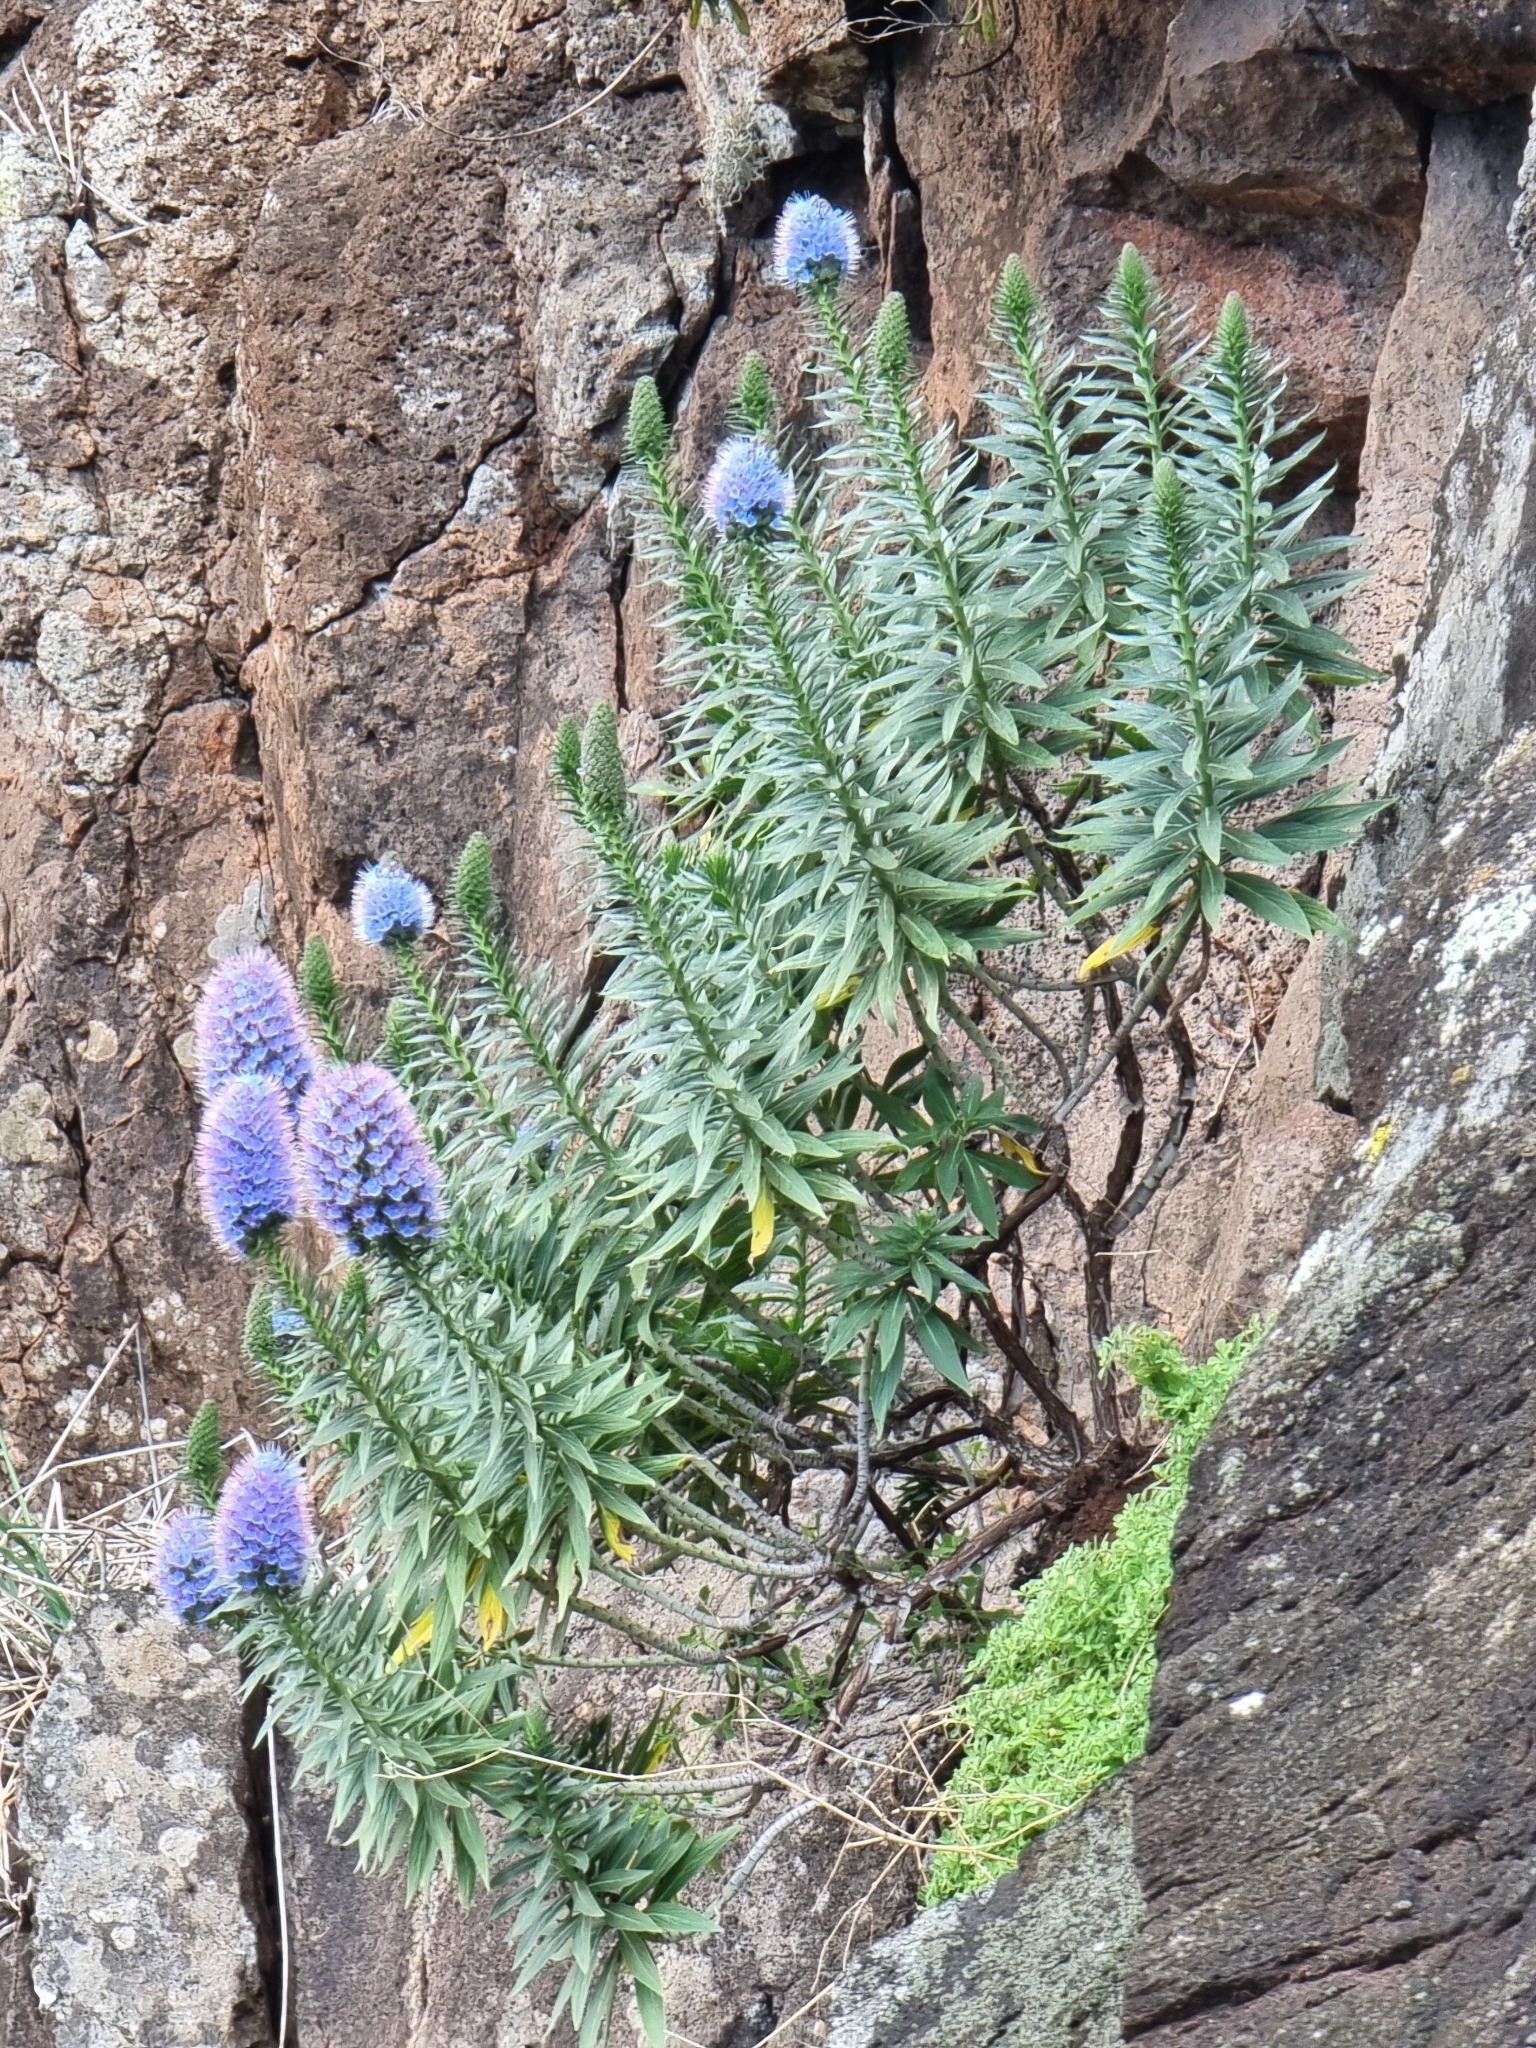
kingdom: Plantae
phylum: Tracheophyta
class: Magnoliopsida
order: Boraginales
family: Boraginaceae
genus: Echium
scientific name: Echium nervosum
